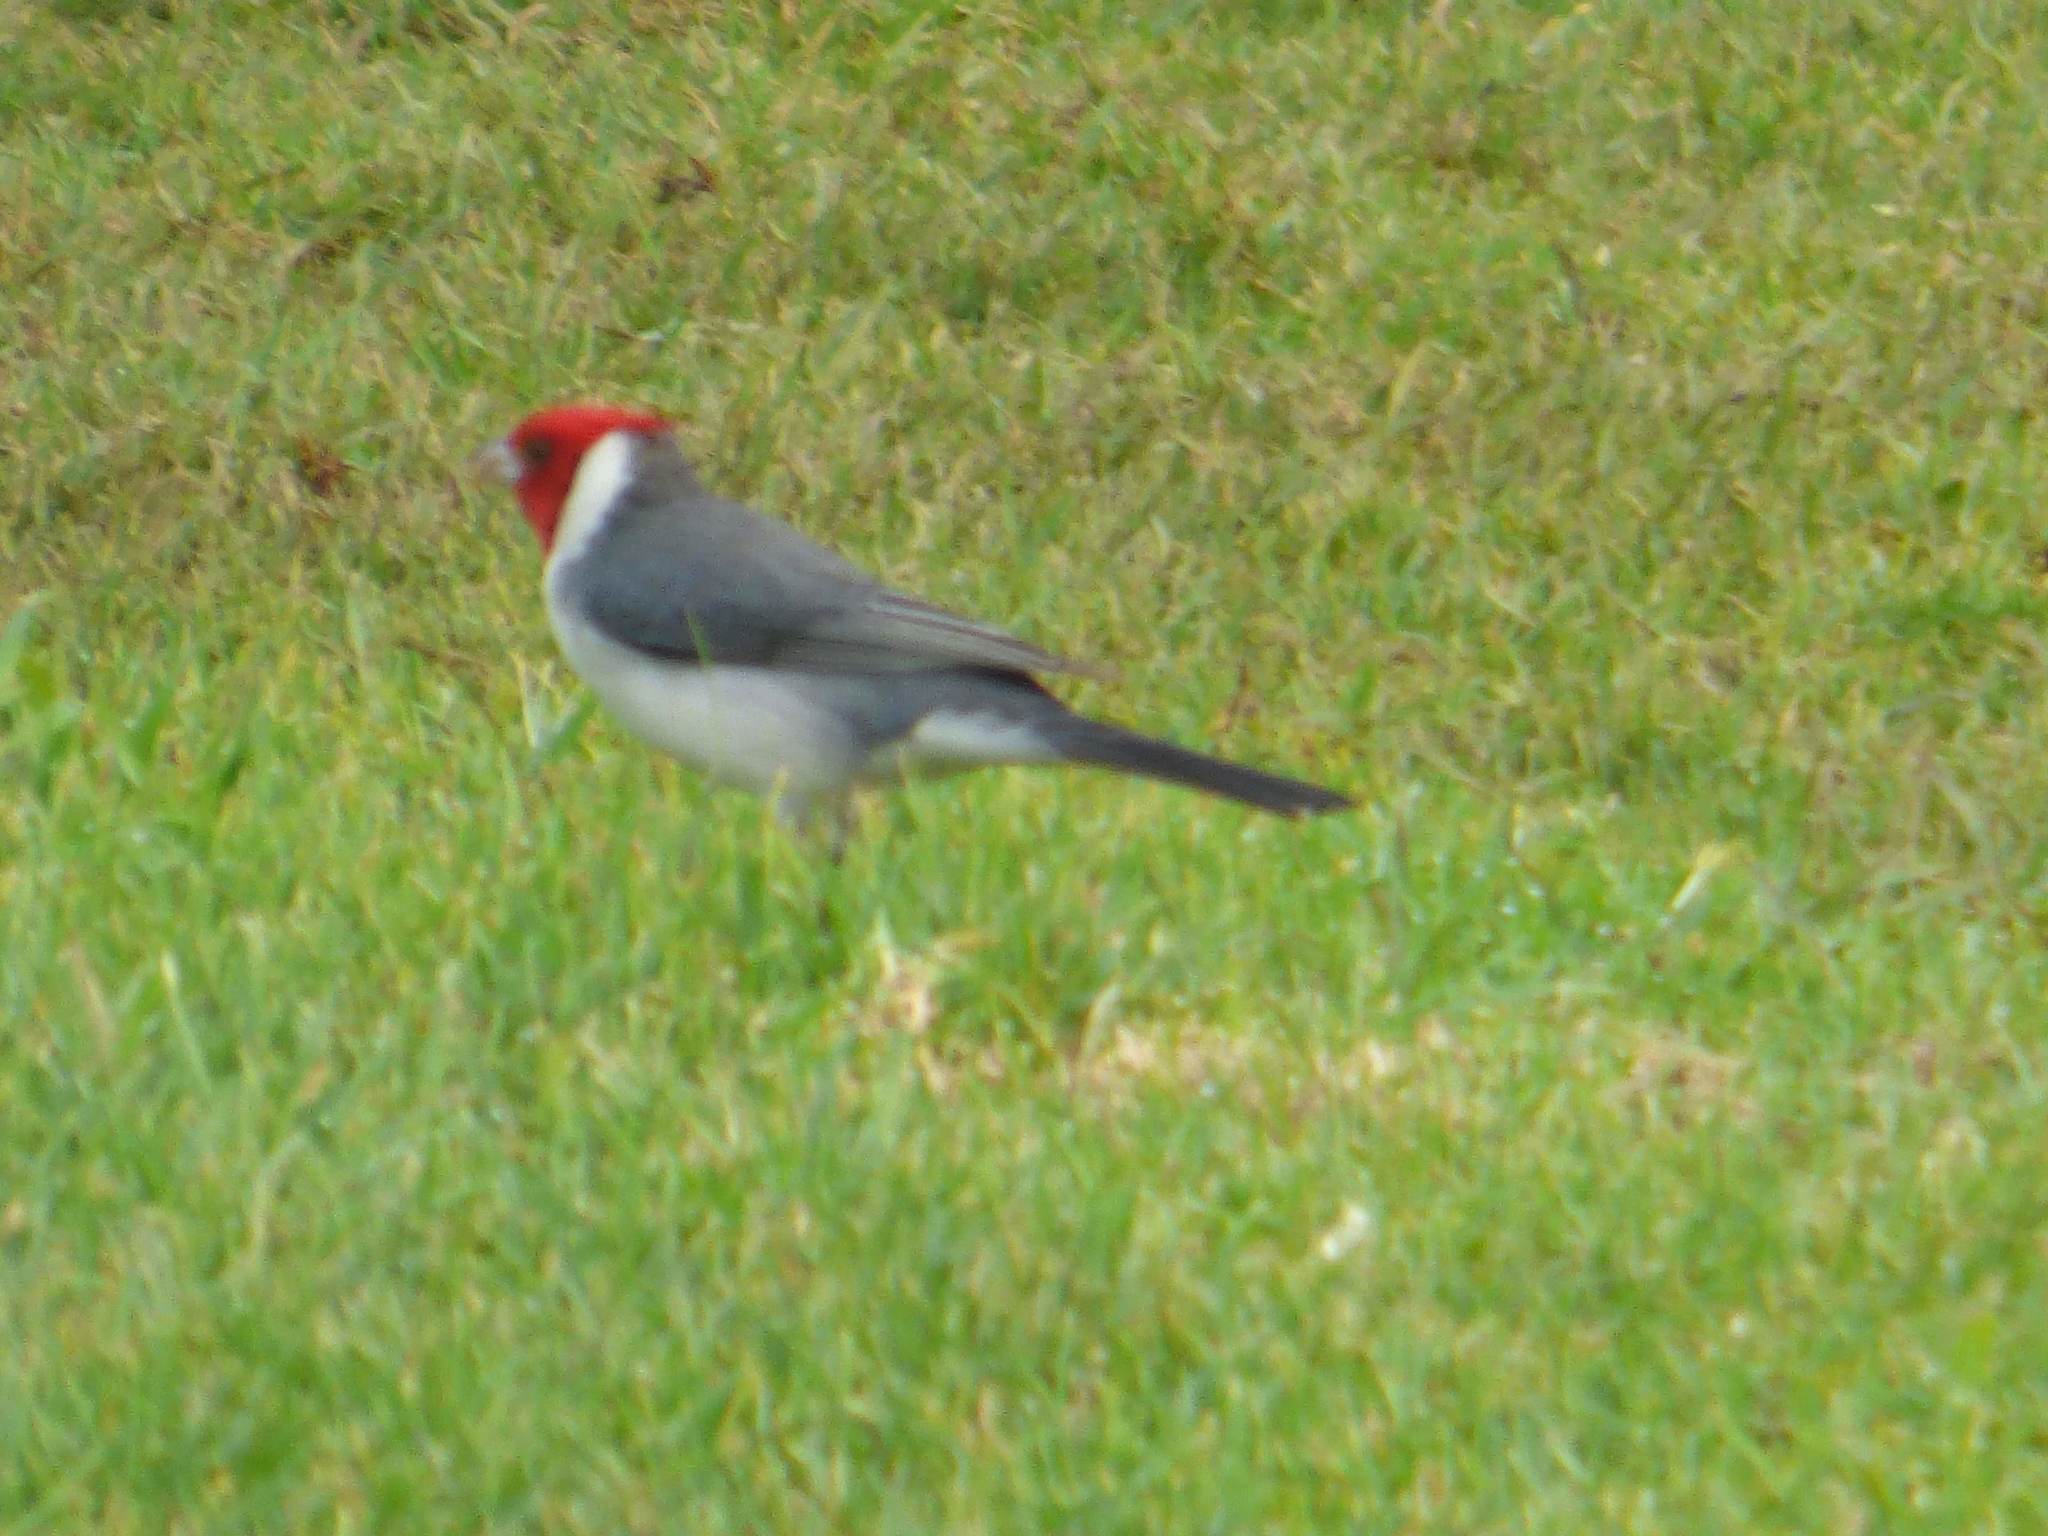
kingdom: Animalia
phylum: Chordata
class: Aves
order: Passeriformes
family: Thraupidae
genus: Paroaria
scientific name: Paroaria coronata
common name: Red-crested cardinal
